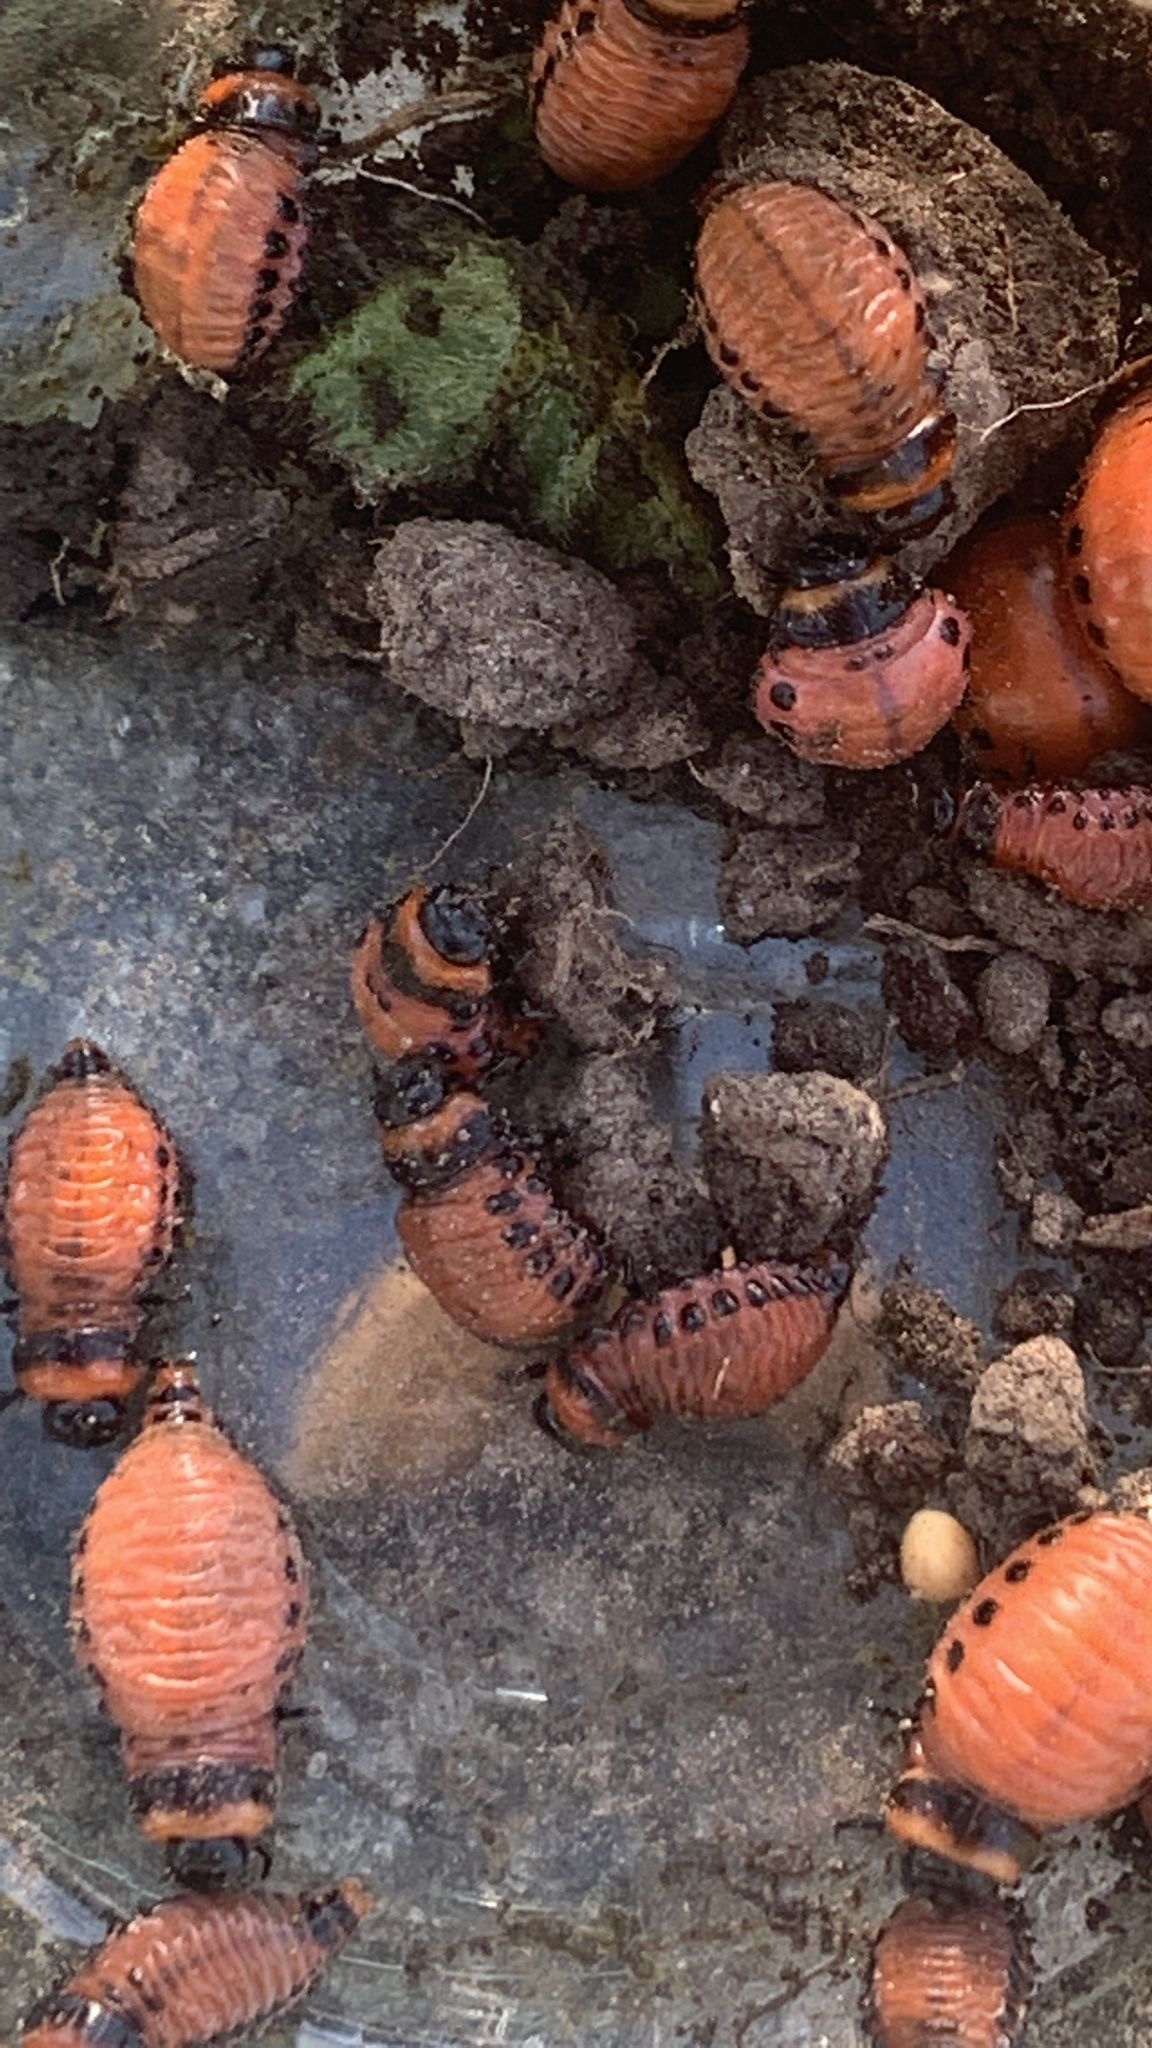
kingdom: Animalia
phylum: Arthropoda
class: Insecta
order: Coleoptera
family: Chrysomelidae
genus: Leptinotarsa
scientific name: Leptinotarsa decemlineata
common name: Colorado potato beetle
